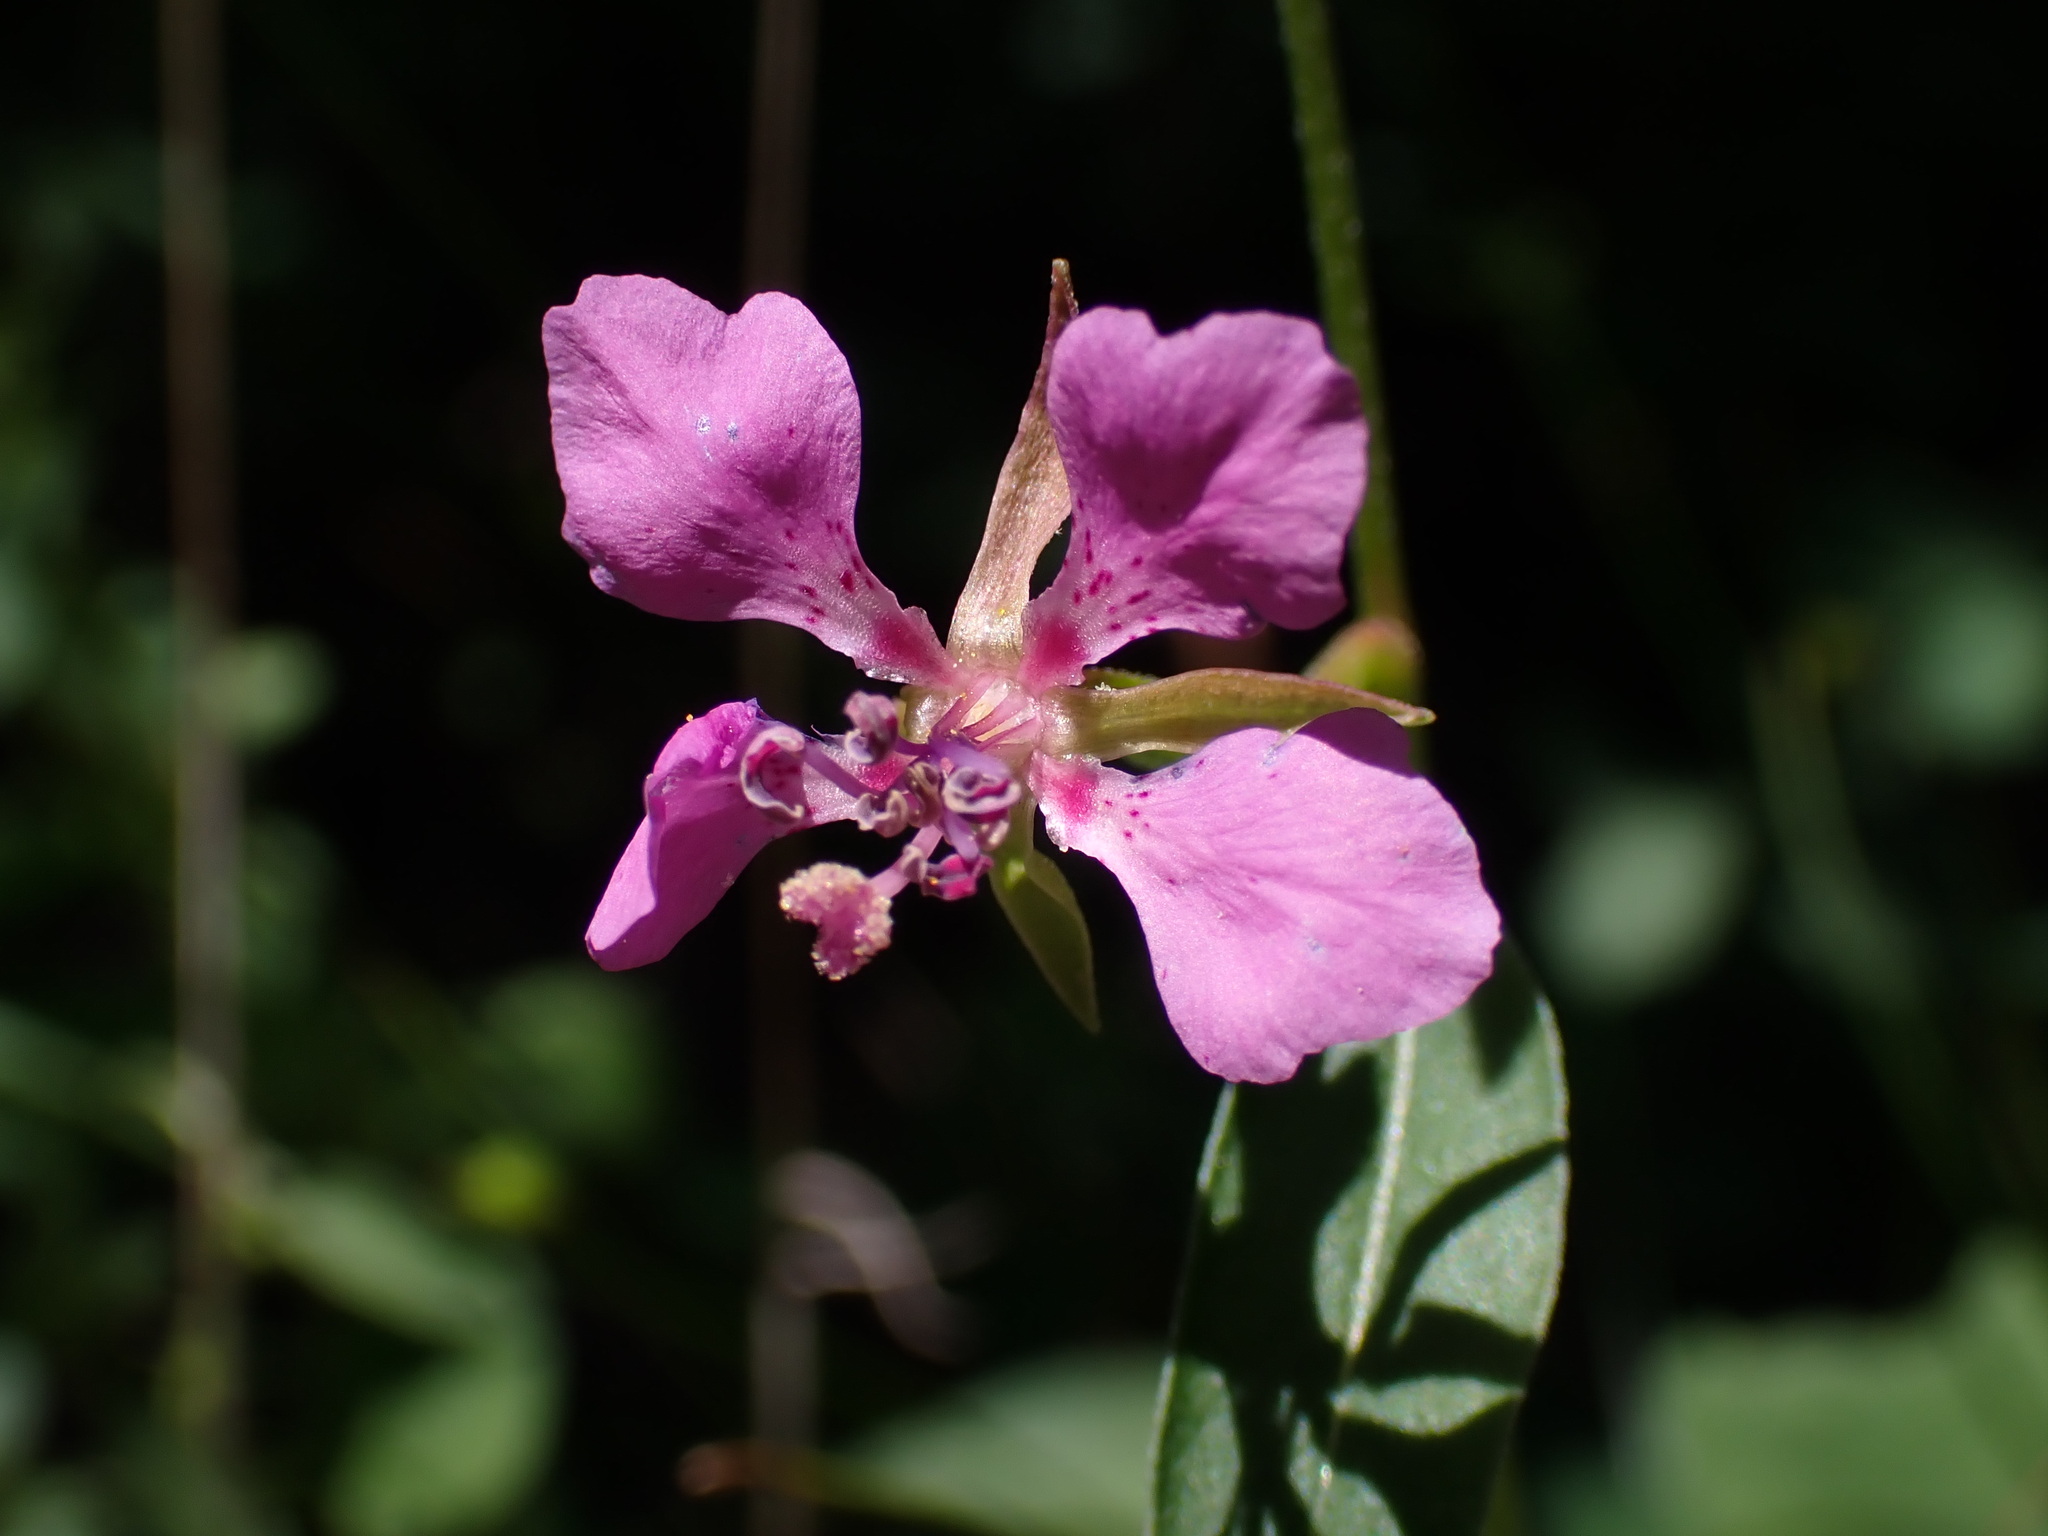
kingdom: Plantae
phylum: Tracheophyta
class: Magnoliopsida
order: Myrtales
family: Onagraceae
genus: Clarkia
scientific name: Clarkia rhomboidea
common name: Broadleaf clarkia
